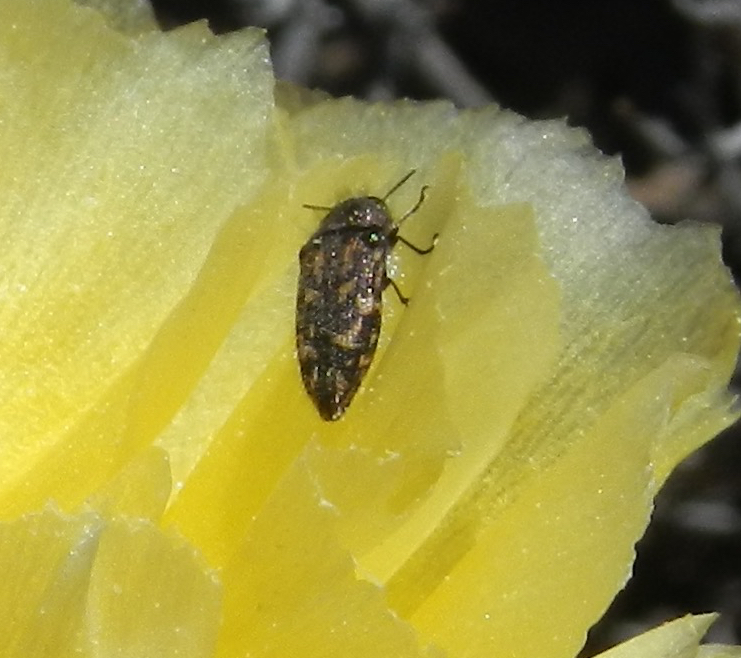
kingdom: Animalia
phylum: Arthropoda
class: Insecta
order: Coleoptera
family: Buprestidae
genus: Acmaeodera
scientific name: Acmaeodera acuta
